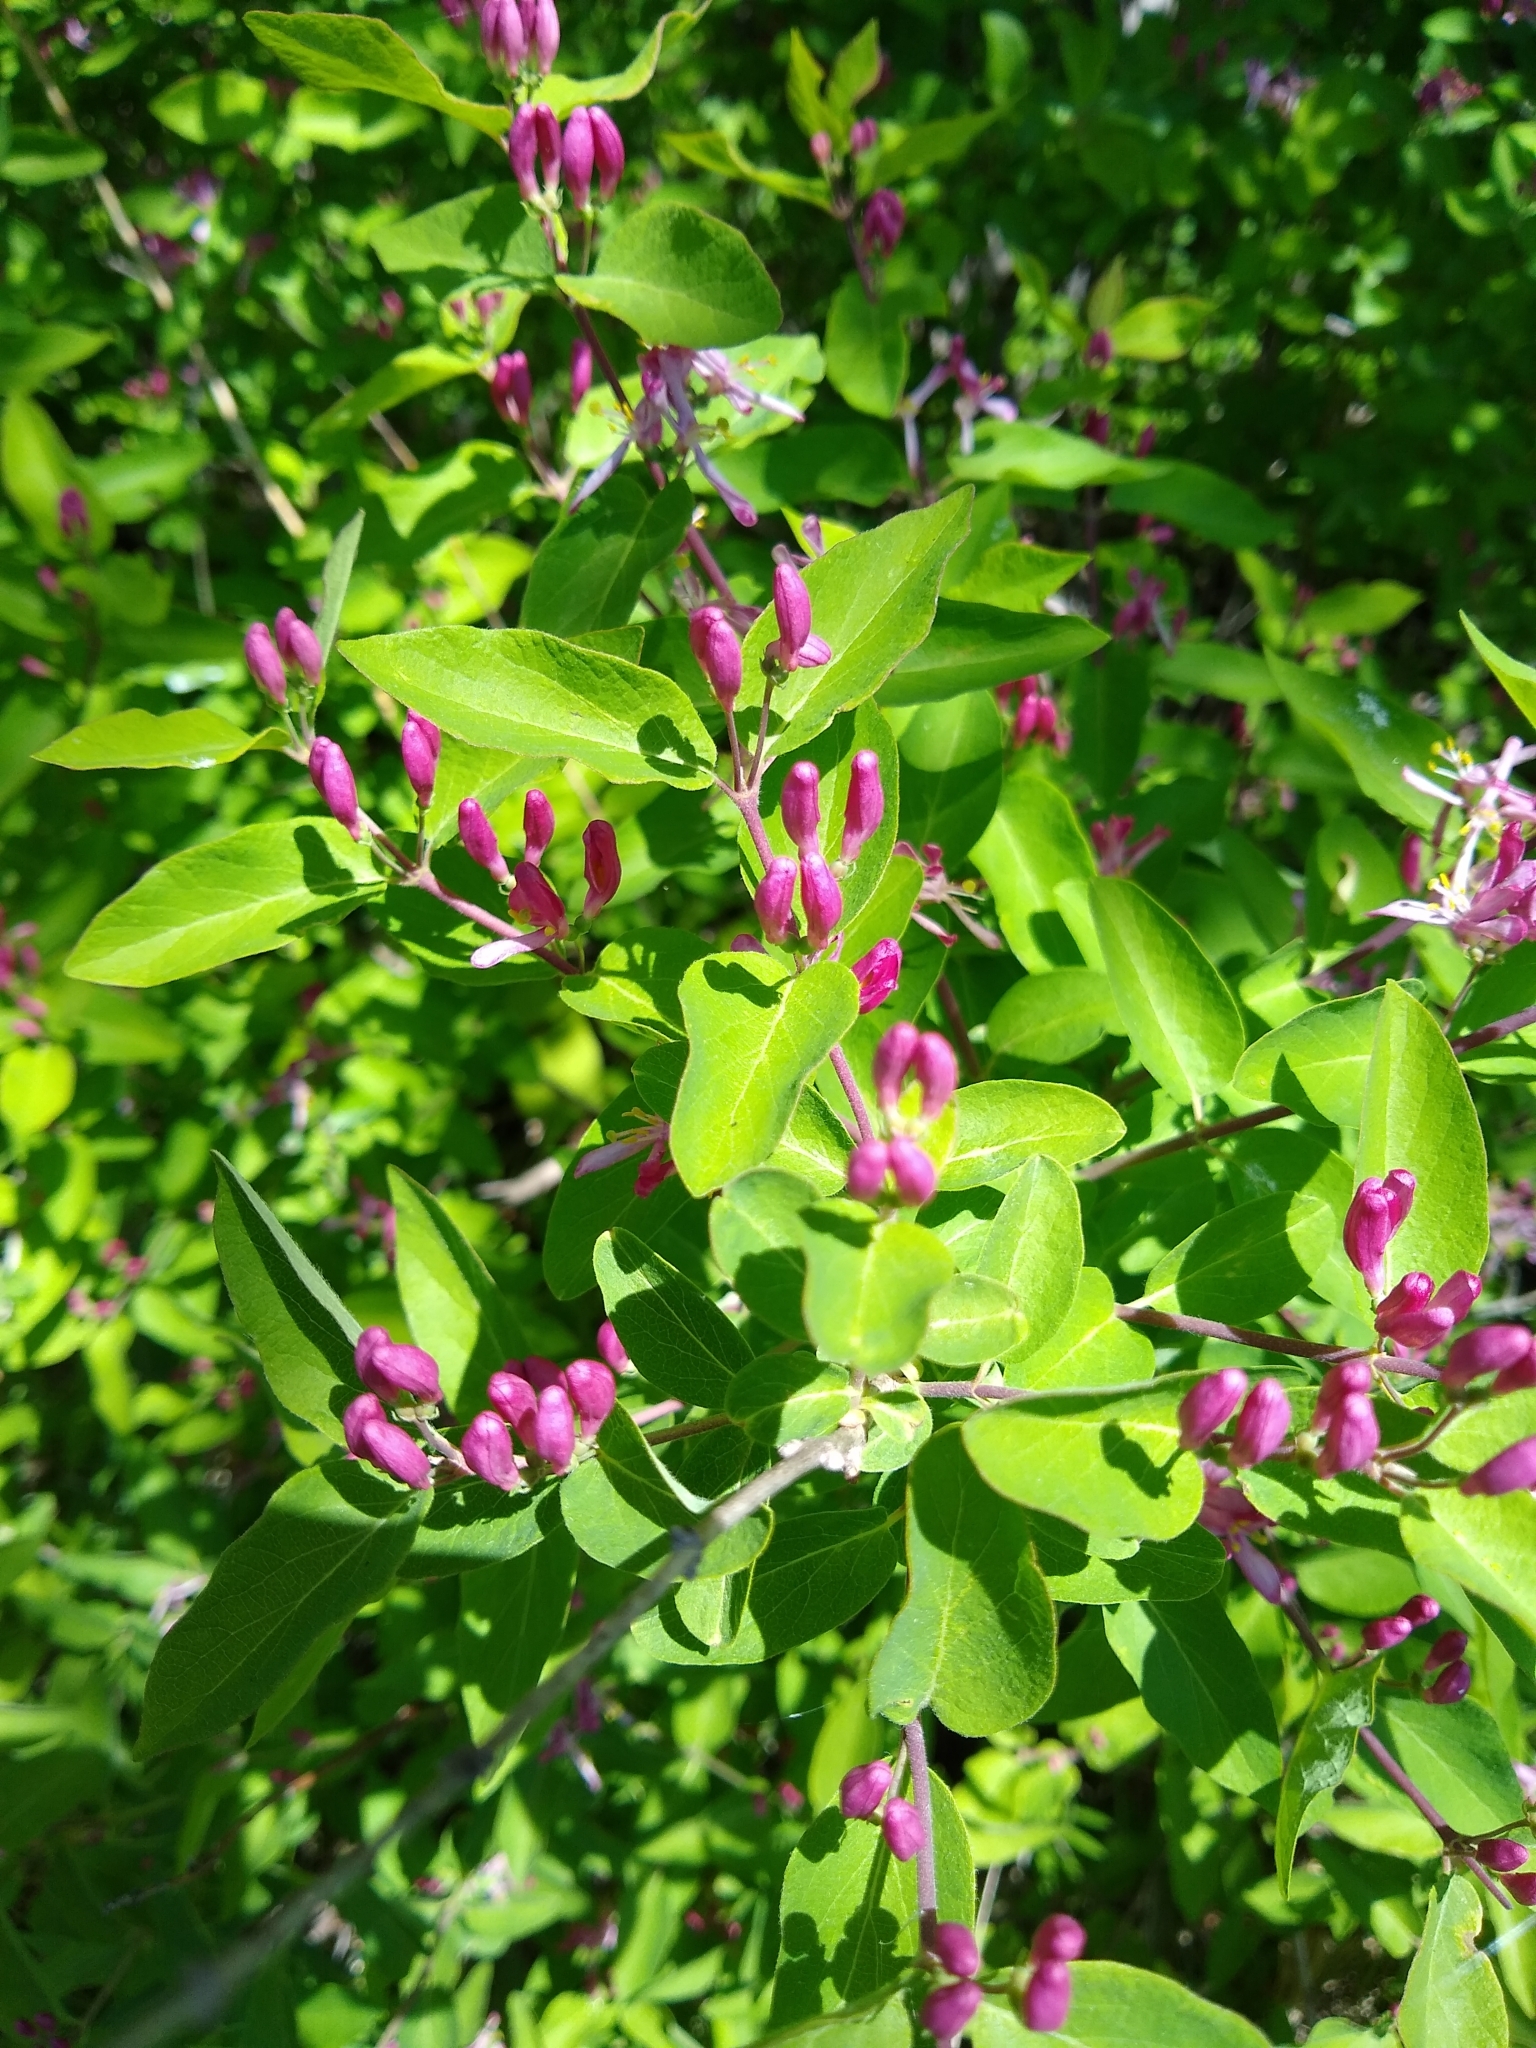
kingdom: Plantae
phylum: Tracheophyta
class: Magnoliopsida
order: Dipsacales
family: Caprifoliaceae
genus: Lonicera
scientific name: Lonicera tatarica
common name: Tatarian honeysuckle
